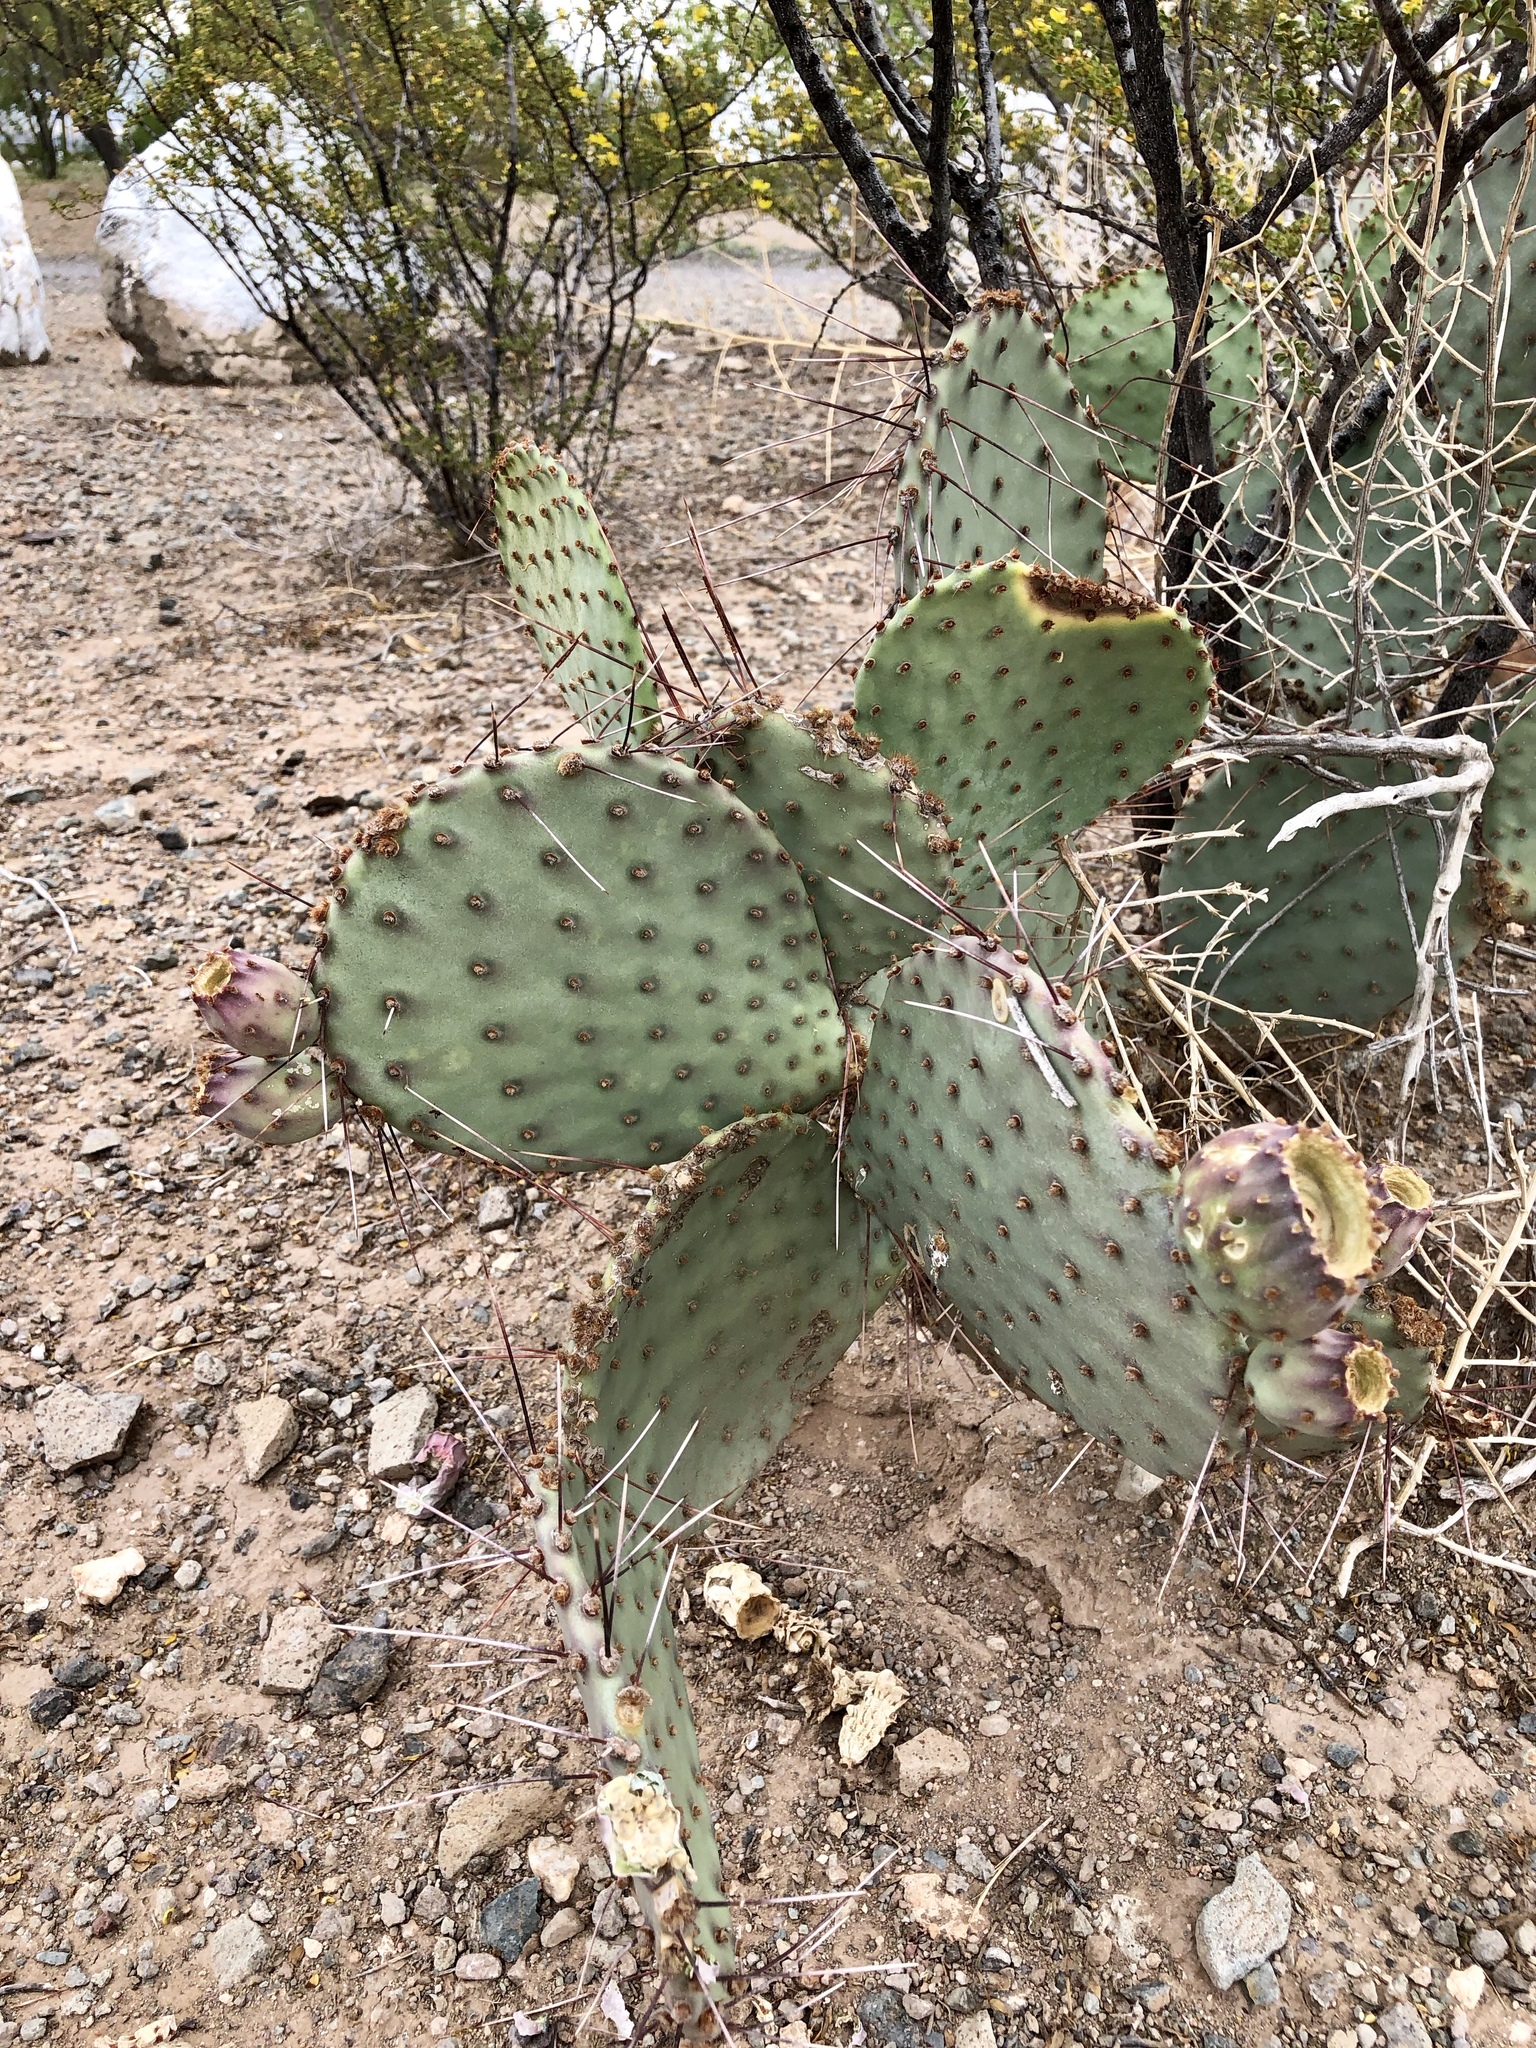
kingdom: Plantae
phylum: Tracheophyta
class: Magnoliopsida
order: Caryophyllales
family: Cactaceae
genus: Opuntia
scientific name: Opuntia macrocentra
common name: Purple prickly-pear
